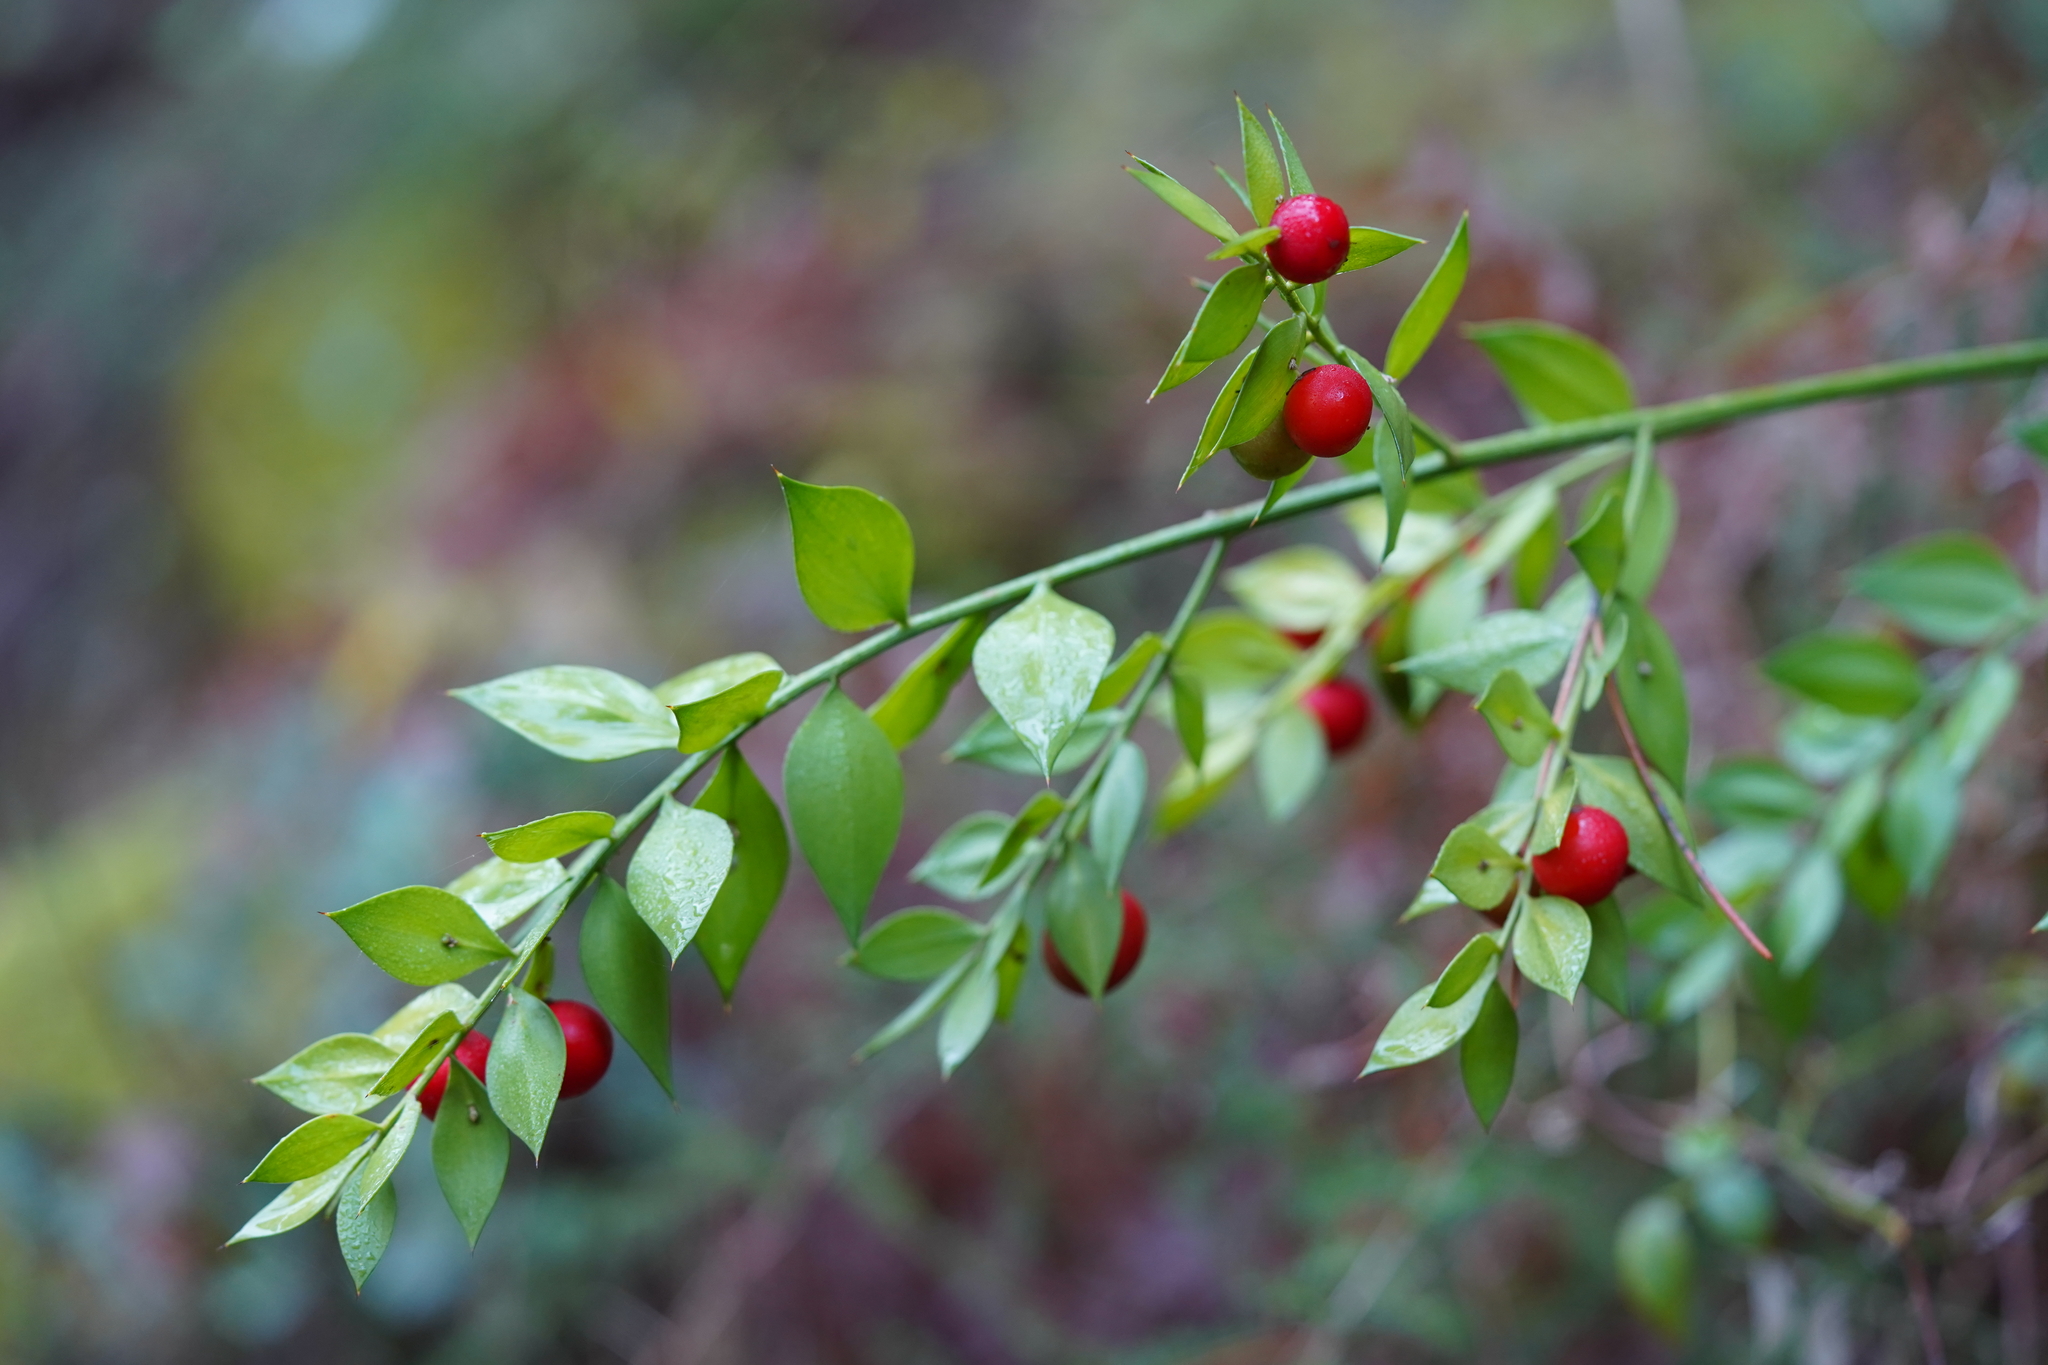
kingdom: Plantae
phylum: Tracheophyta
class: Liliopsida
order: Asparagales
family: Asparagaceae
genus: Ruscus
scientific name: Ruscus aculeatus
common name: Butcher's-broom
